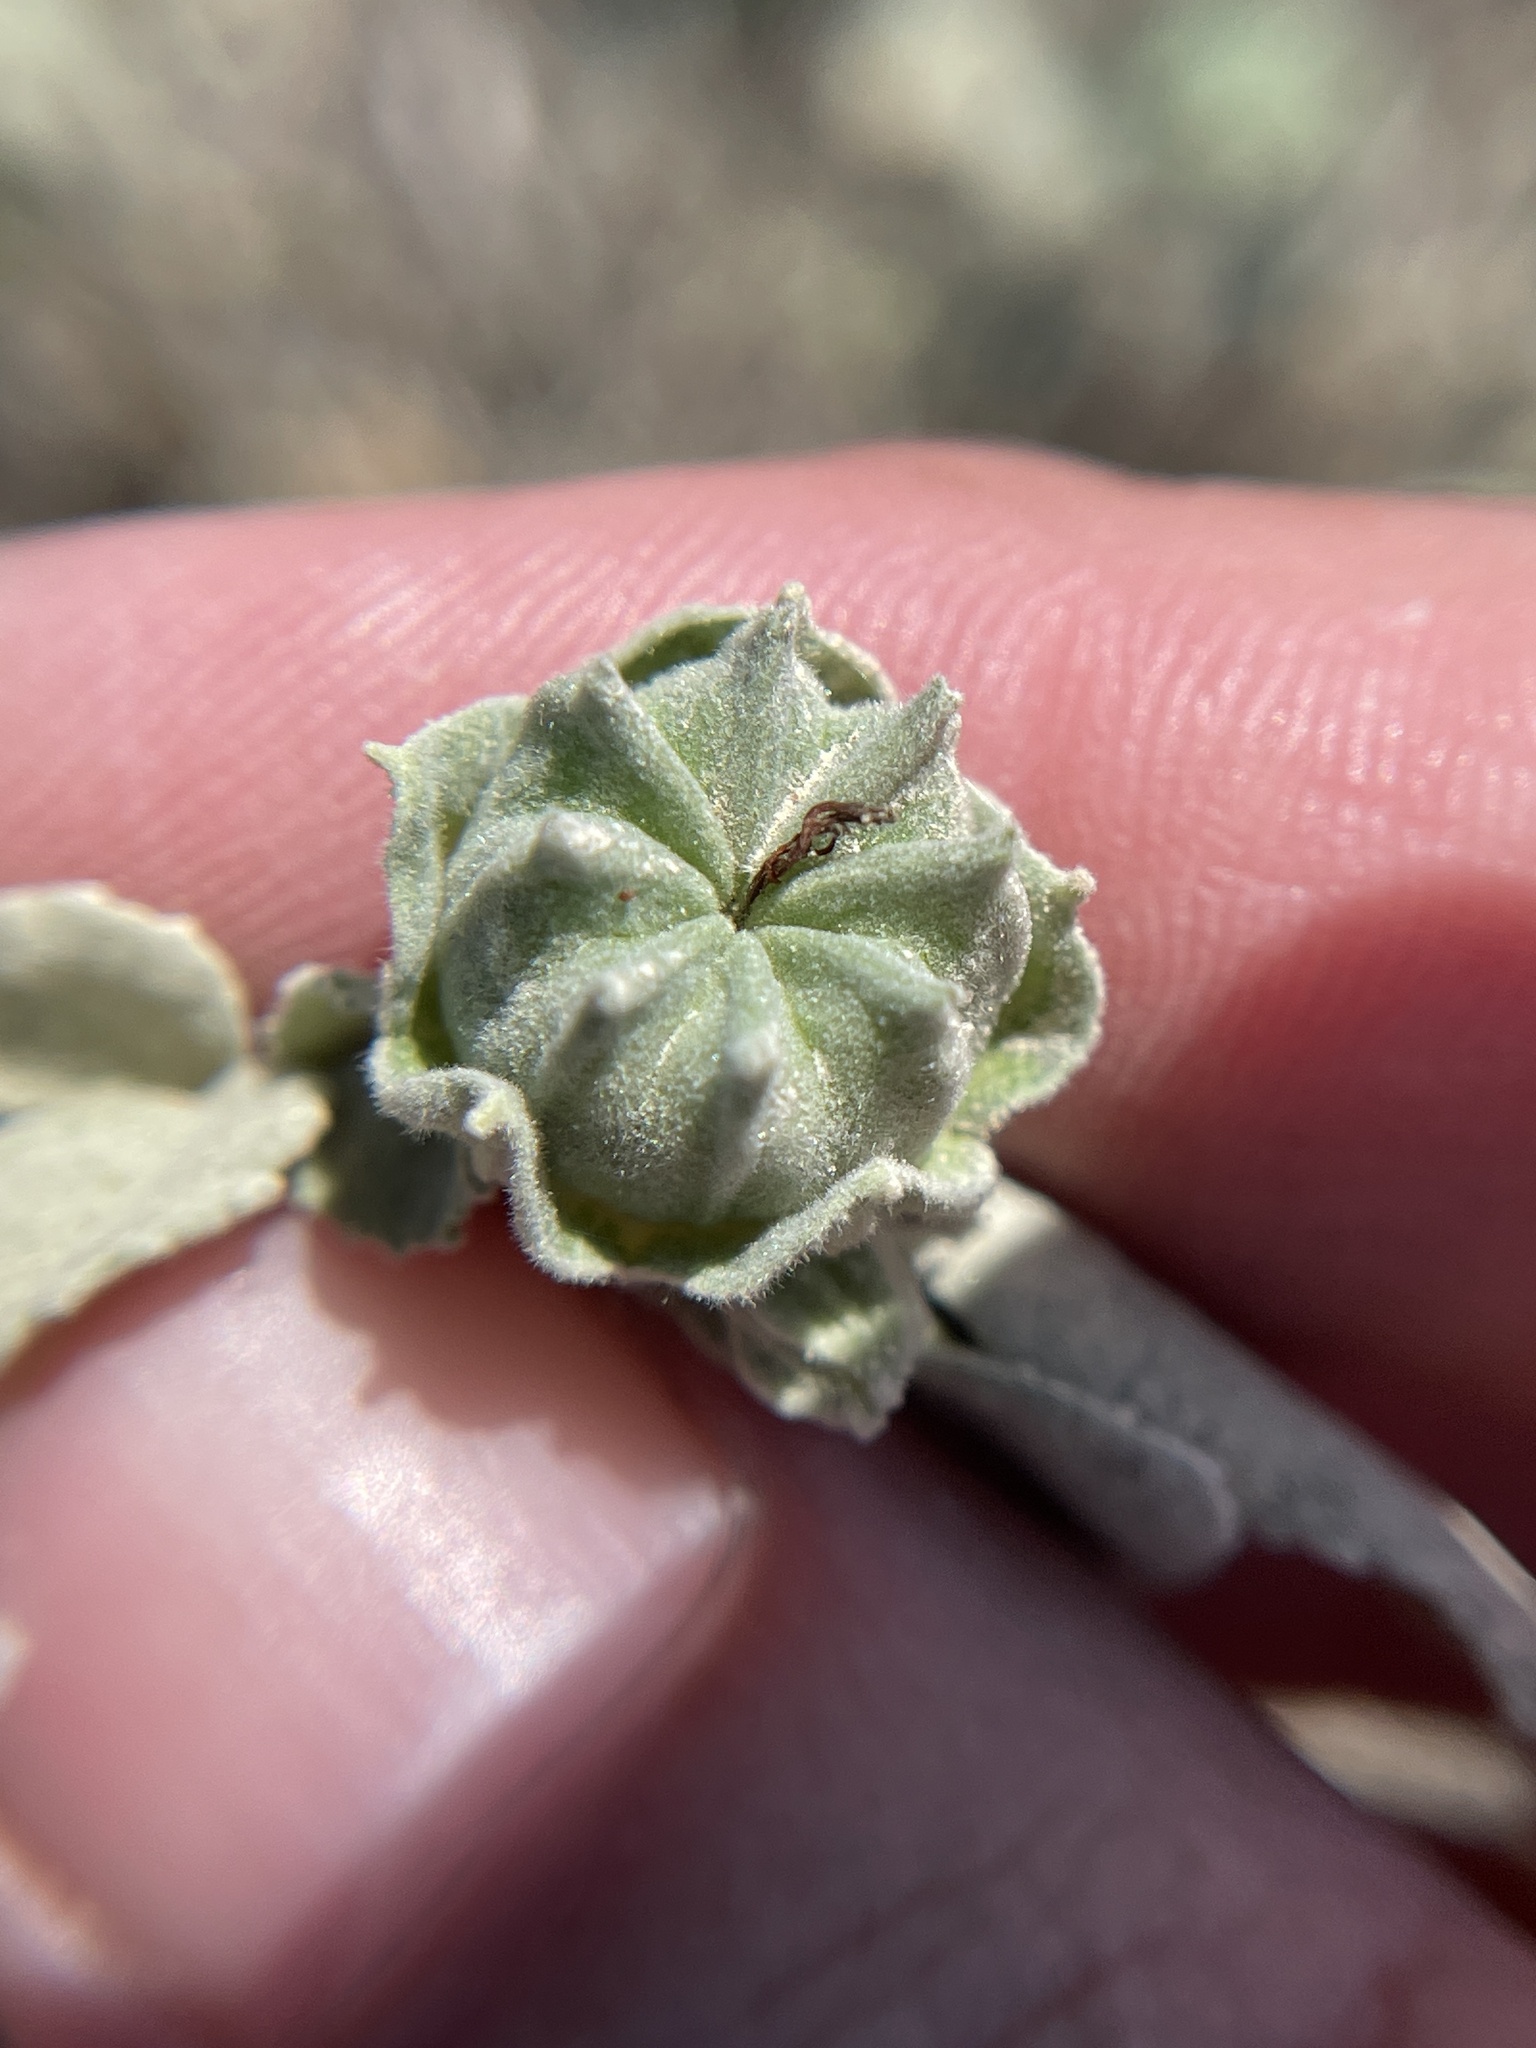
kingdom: Plantae
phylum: Tracheophyta
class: Magnoliopsida
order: Malvales
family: Malvaceae
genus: Abutilon
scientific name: Abutilon abutiloides
